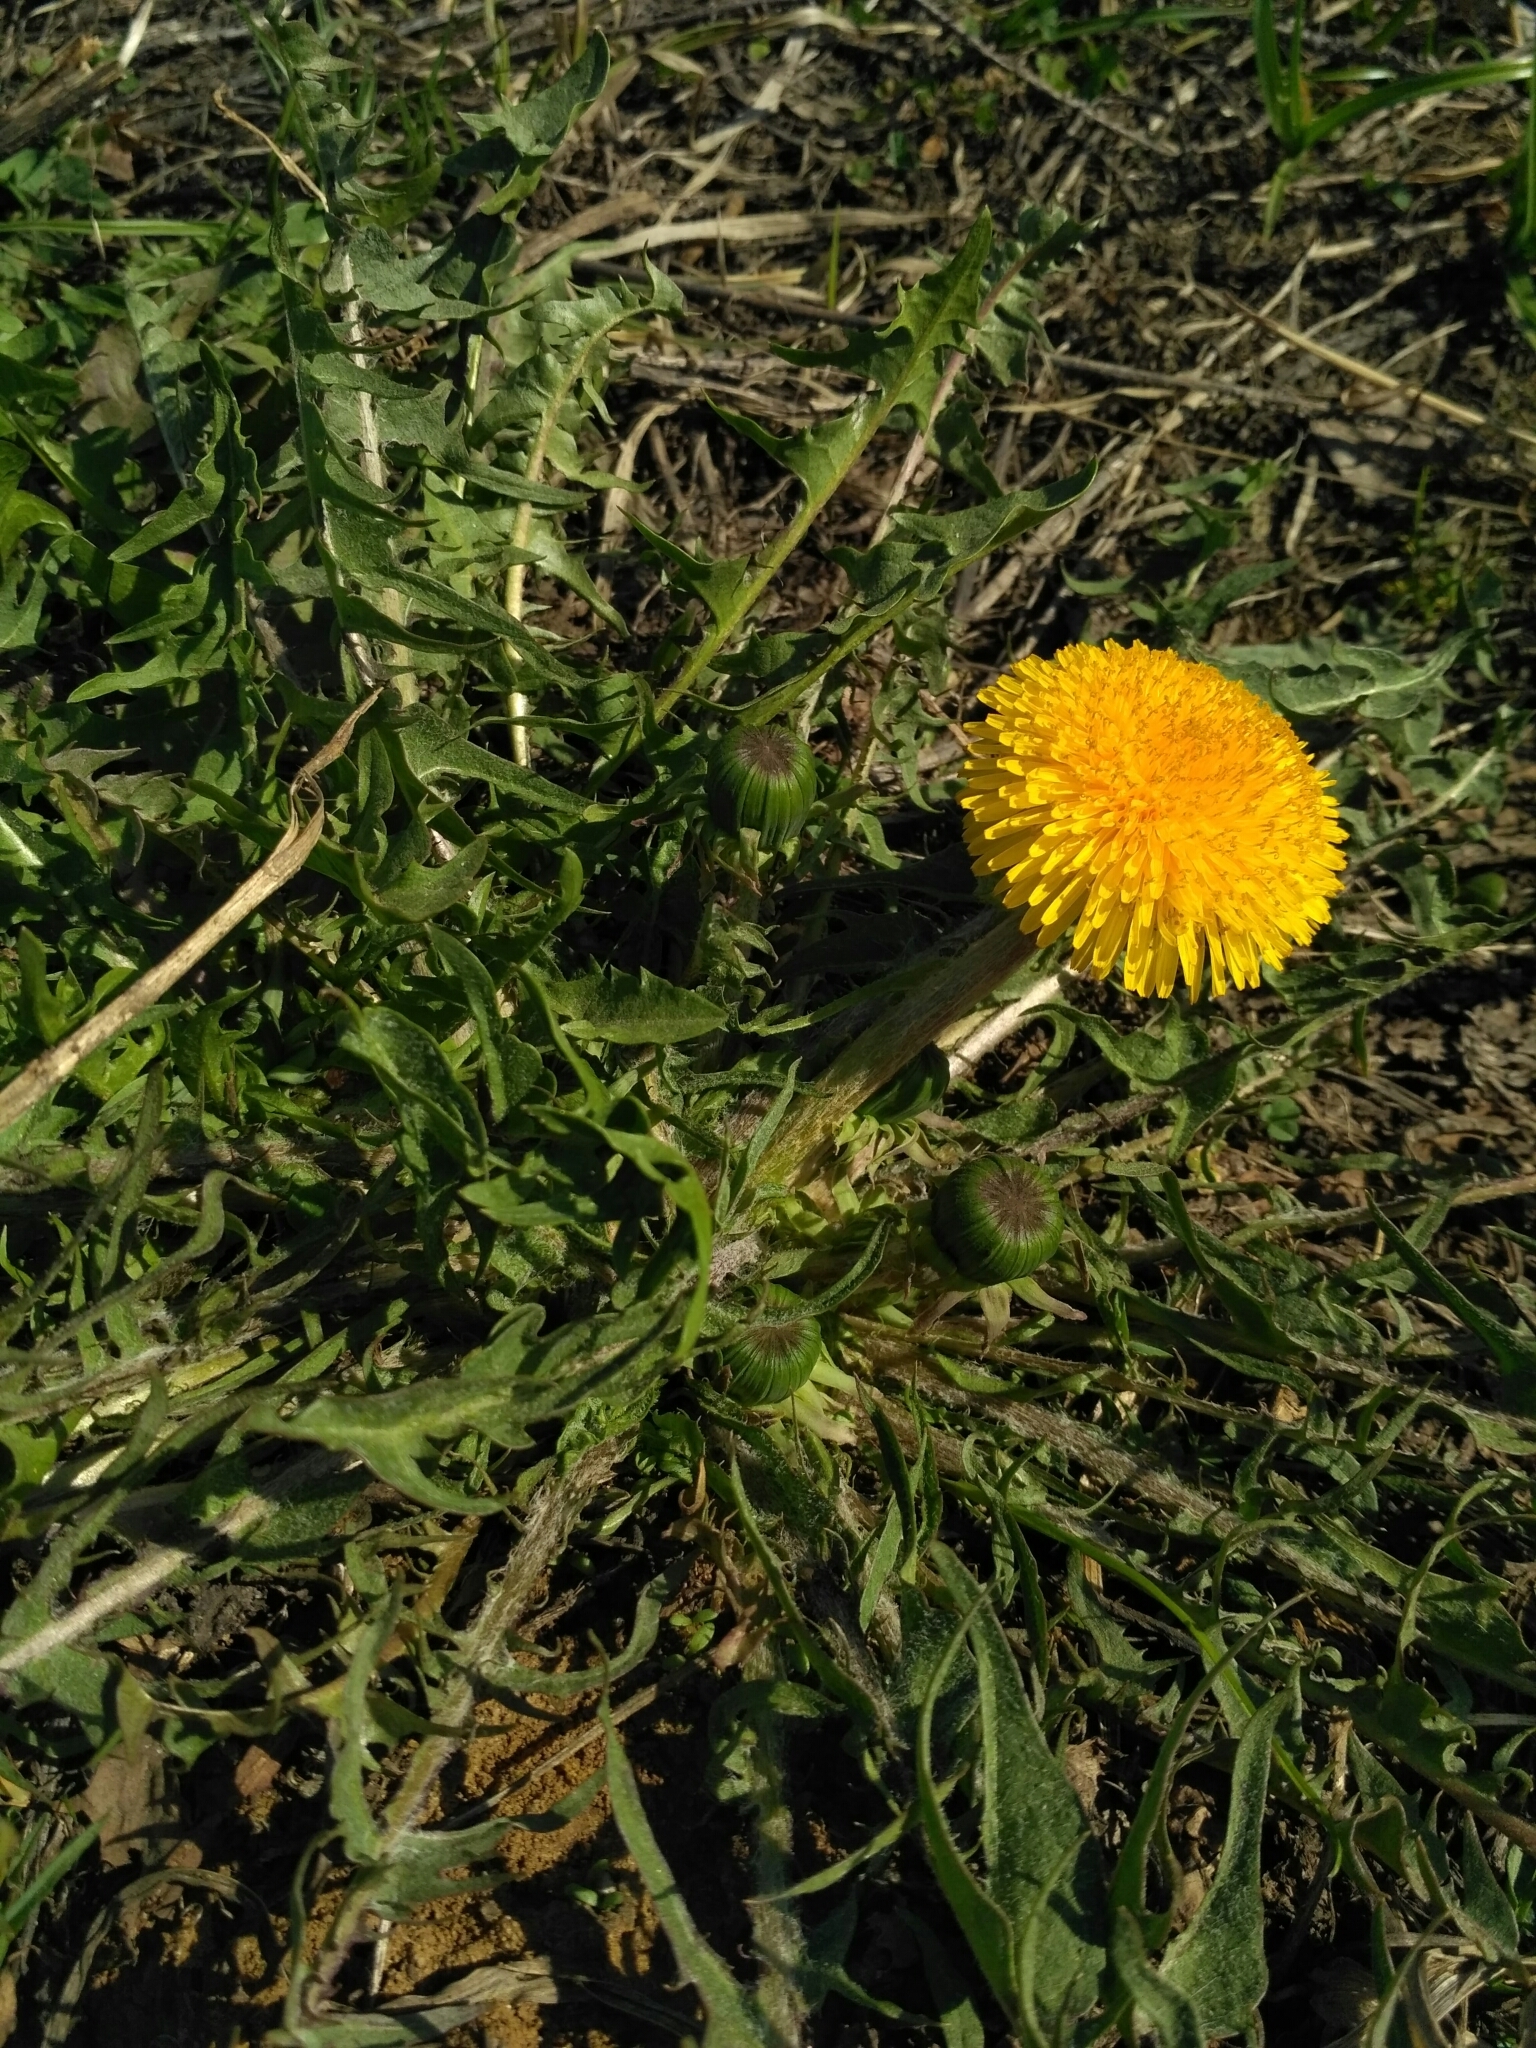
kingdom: Plantae
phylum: Tracheophyta
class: Magnoliopsida
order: Asterales
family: Asteraceae
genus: Taraxacum
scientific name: Taraxacum officinale
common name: Common dandelion
